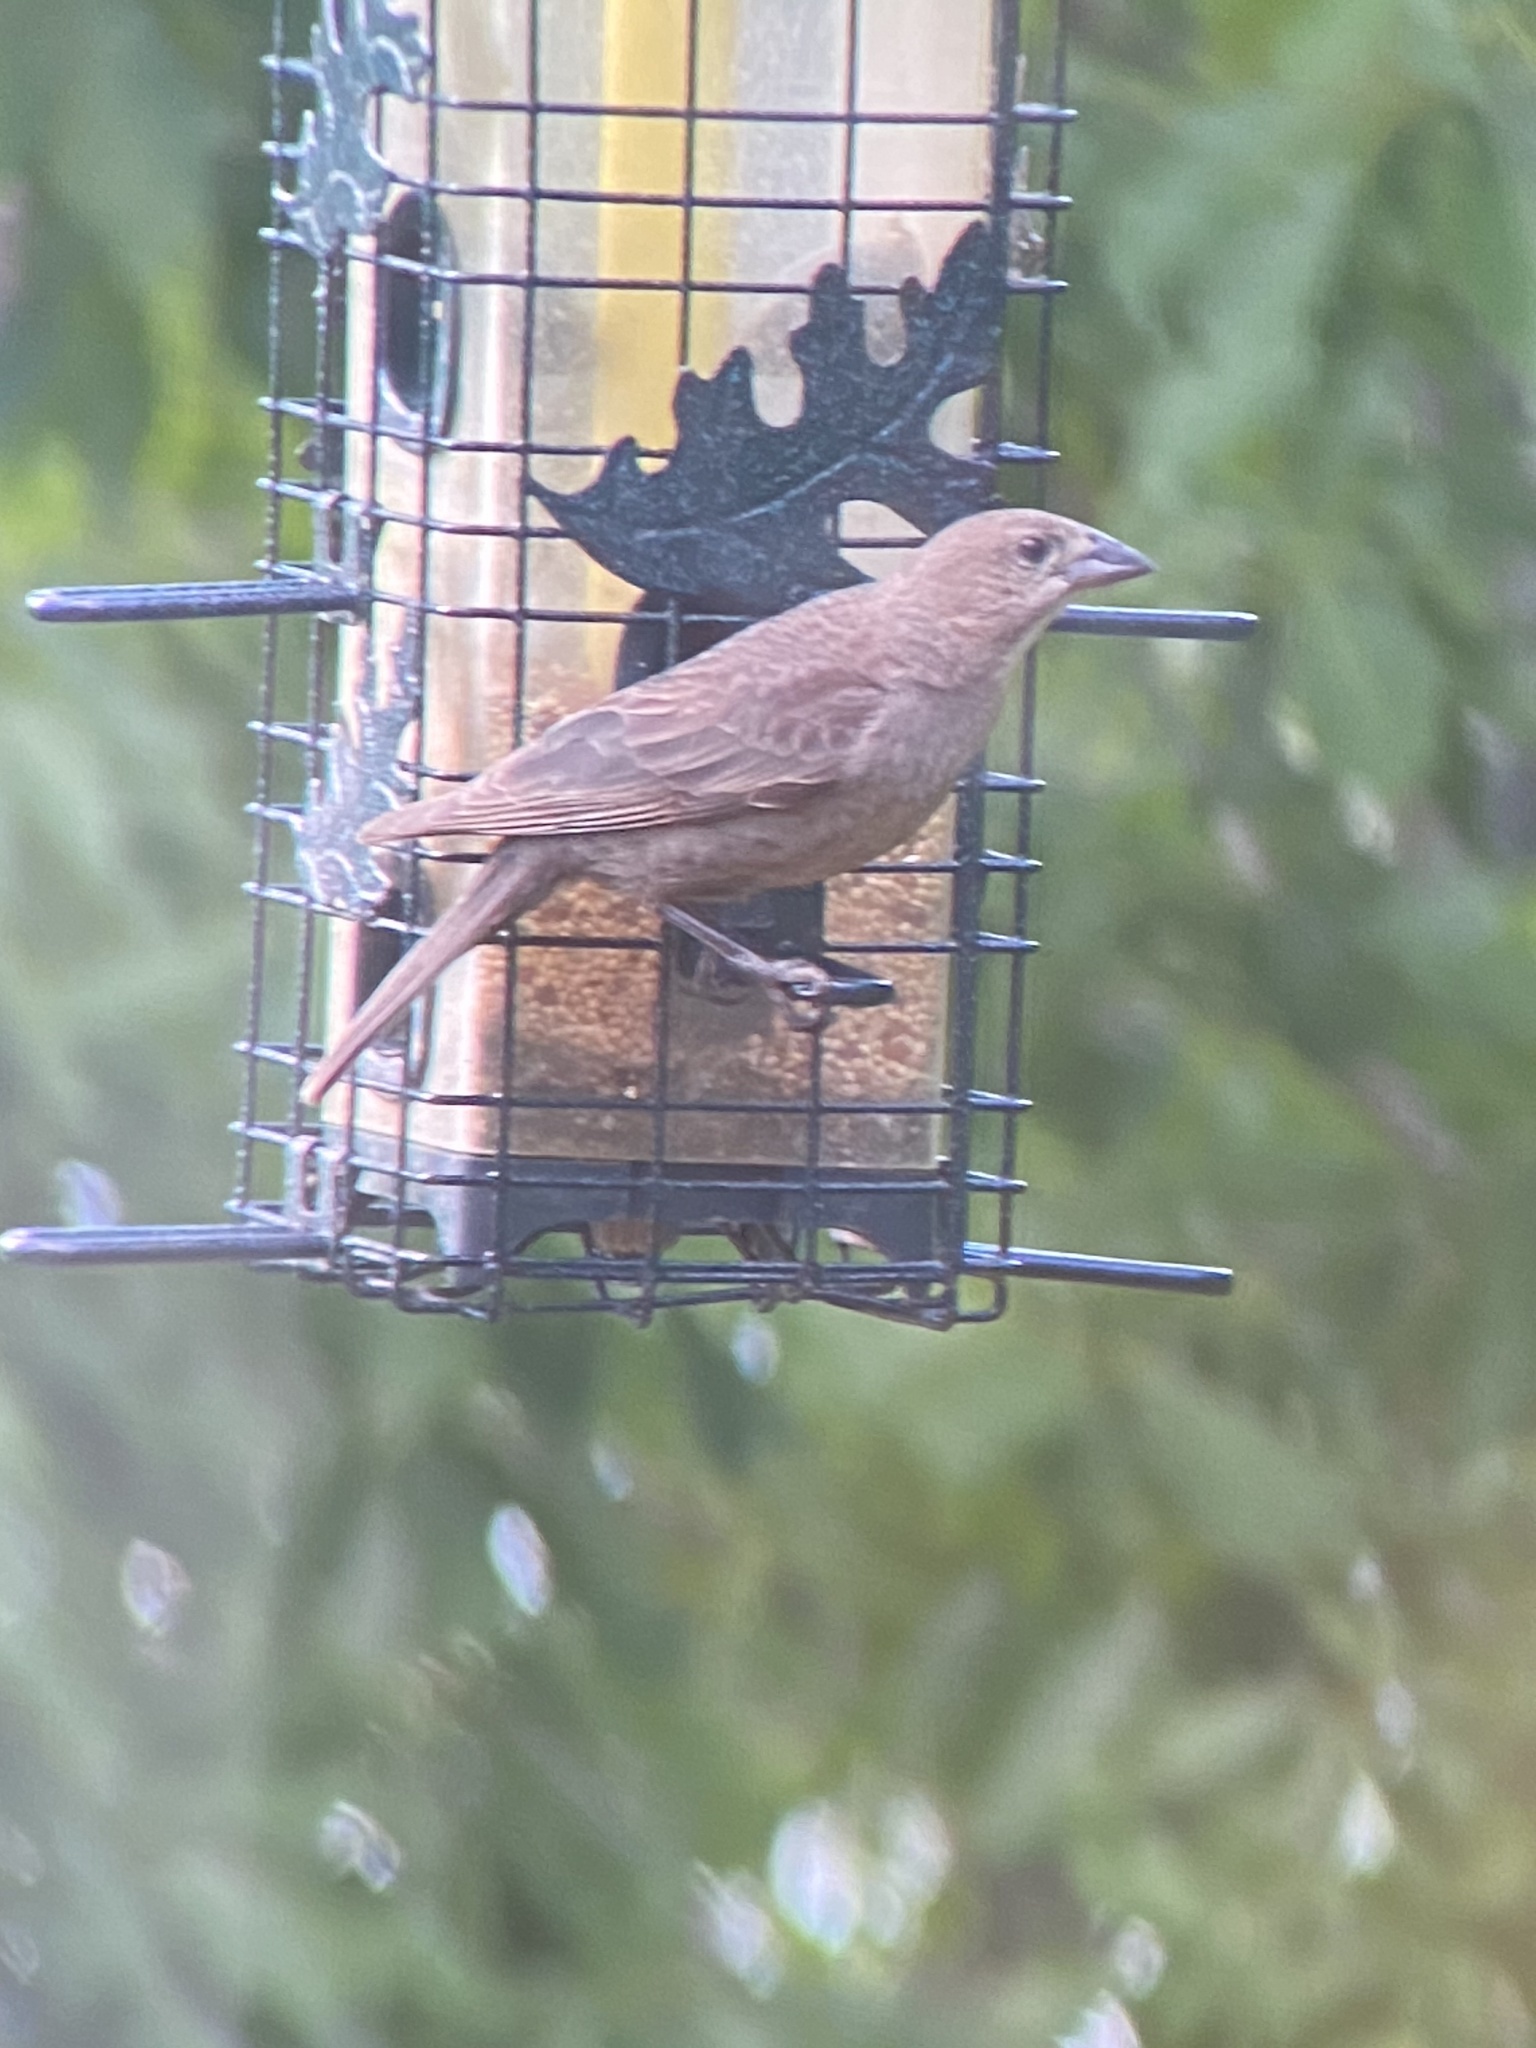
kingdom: Animalia
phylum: Chordata
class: Aves
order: Passeriformes
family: Icteridae
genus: Molothrus
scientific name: Molothrus ater
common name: Brown-headed cowbird
